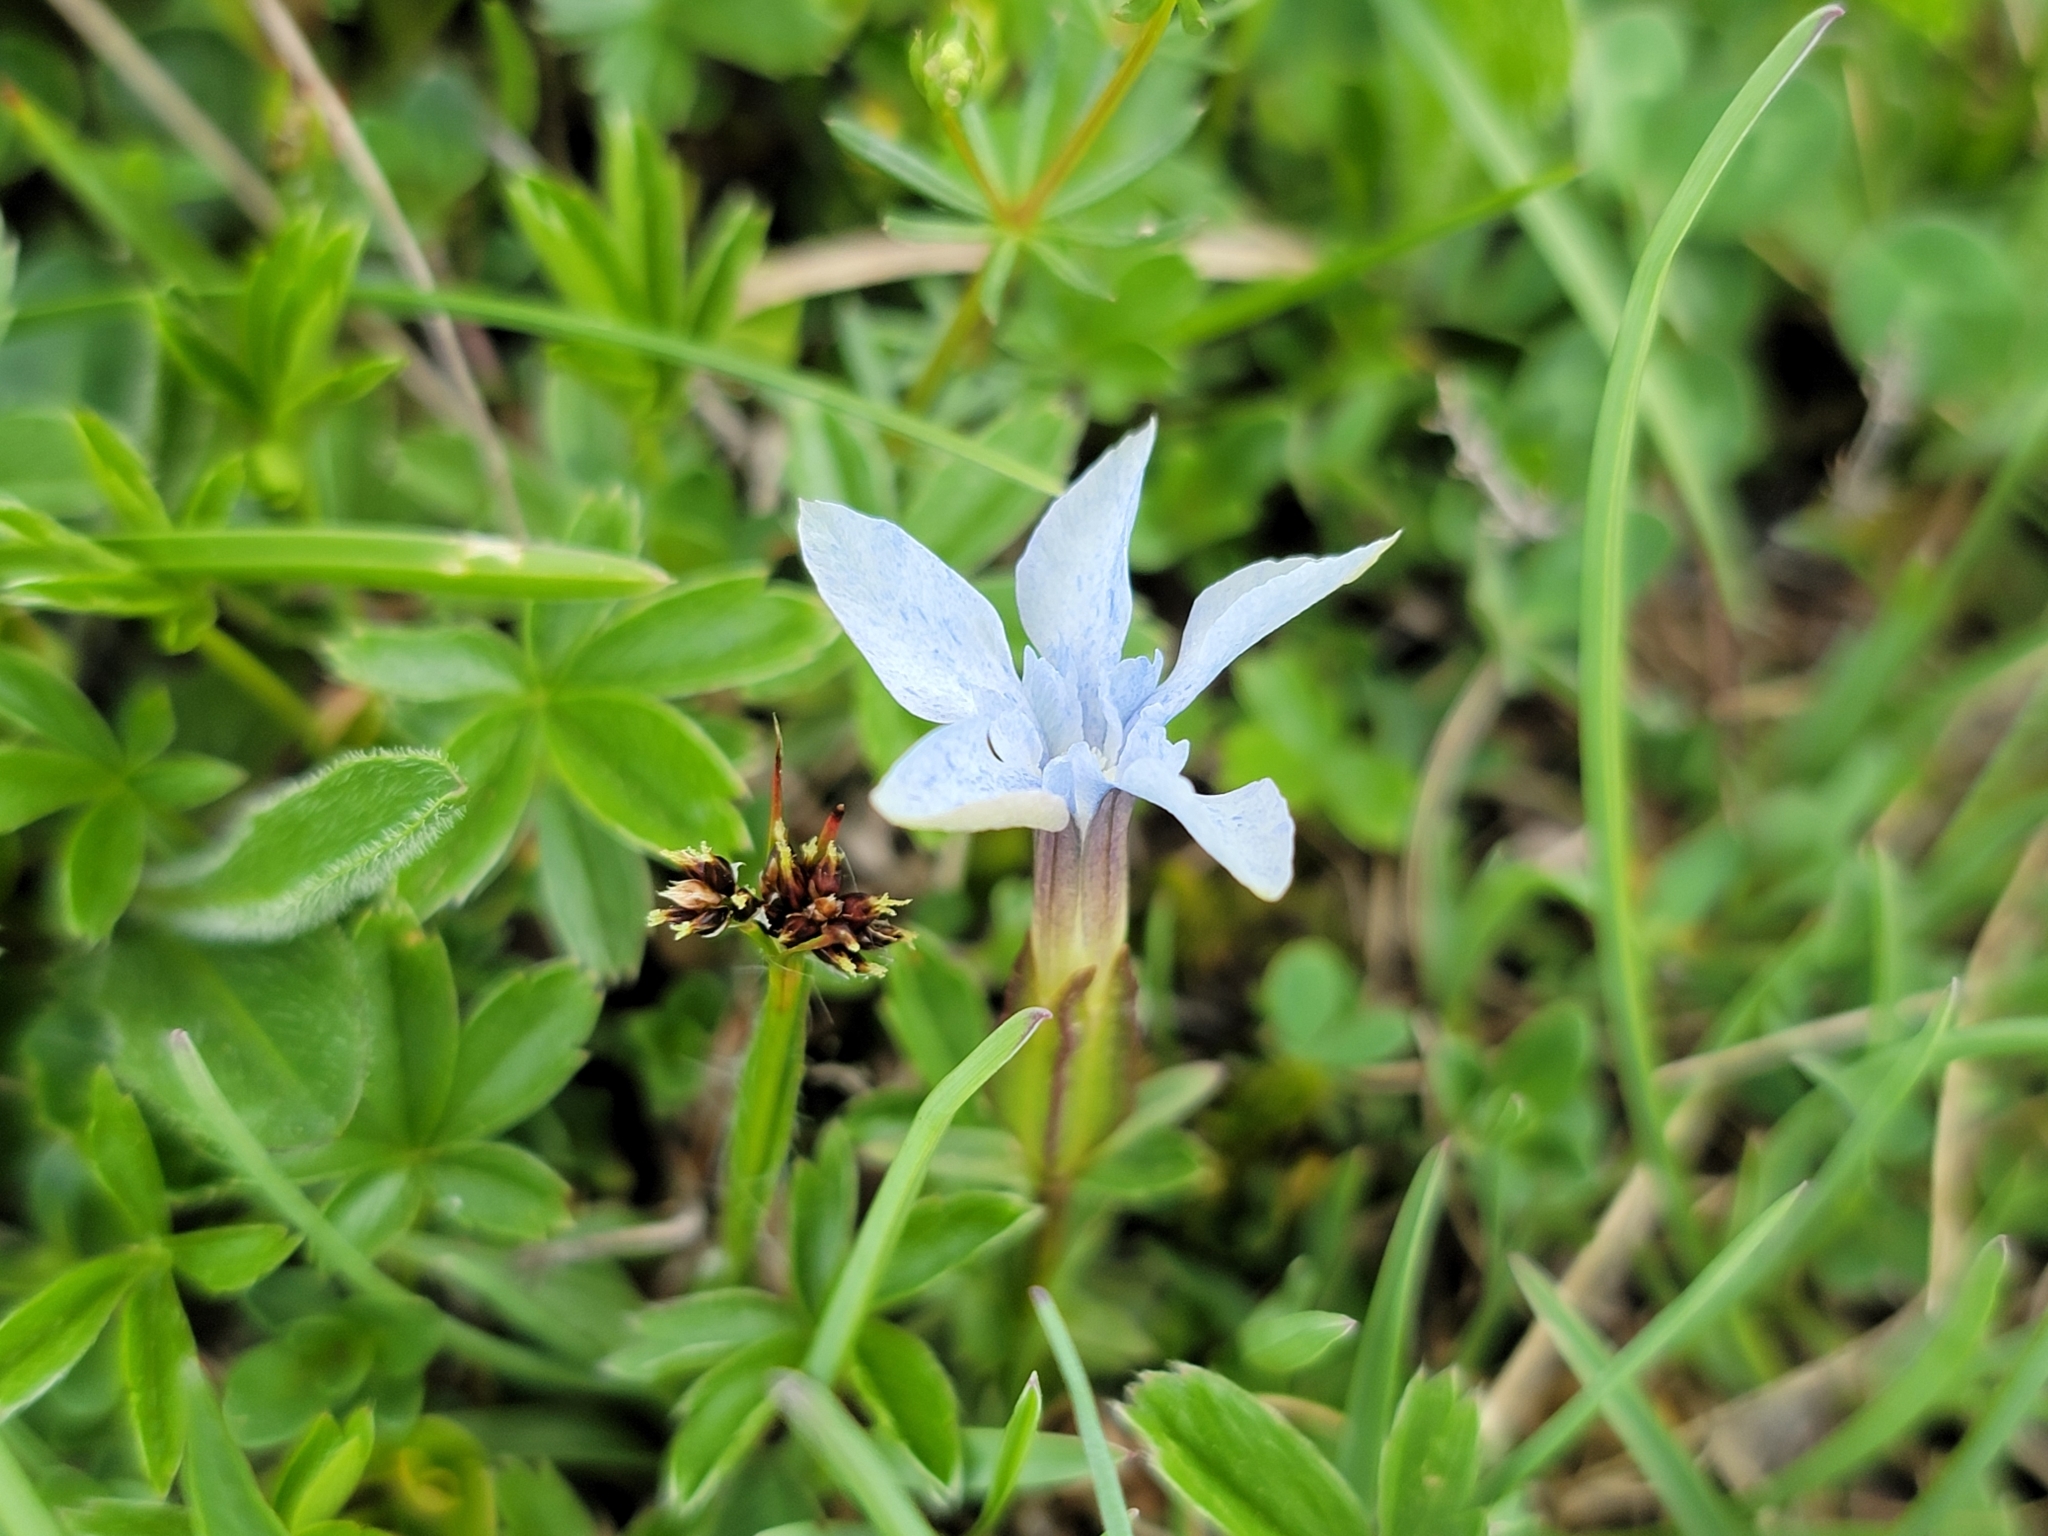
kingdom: Plantae
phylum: Tracheophyta
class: Magnoliopsida
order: Gentianales
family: Gentianaceae
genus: Gentiana
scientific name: Gentiana verna
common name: Spring gentian
